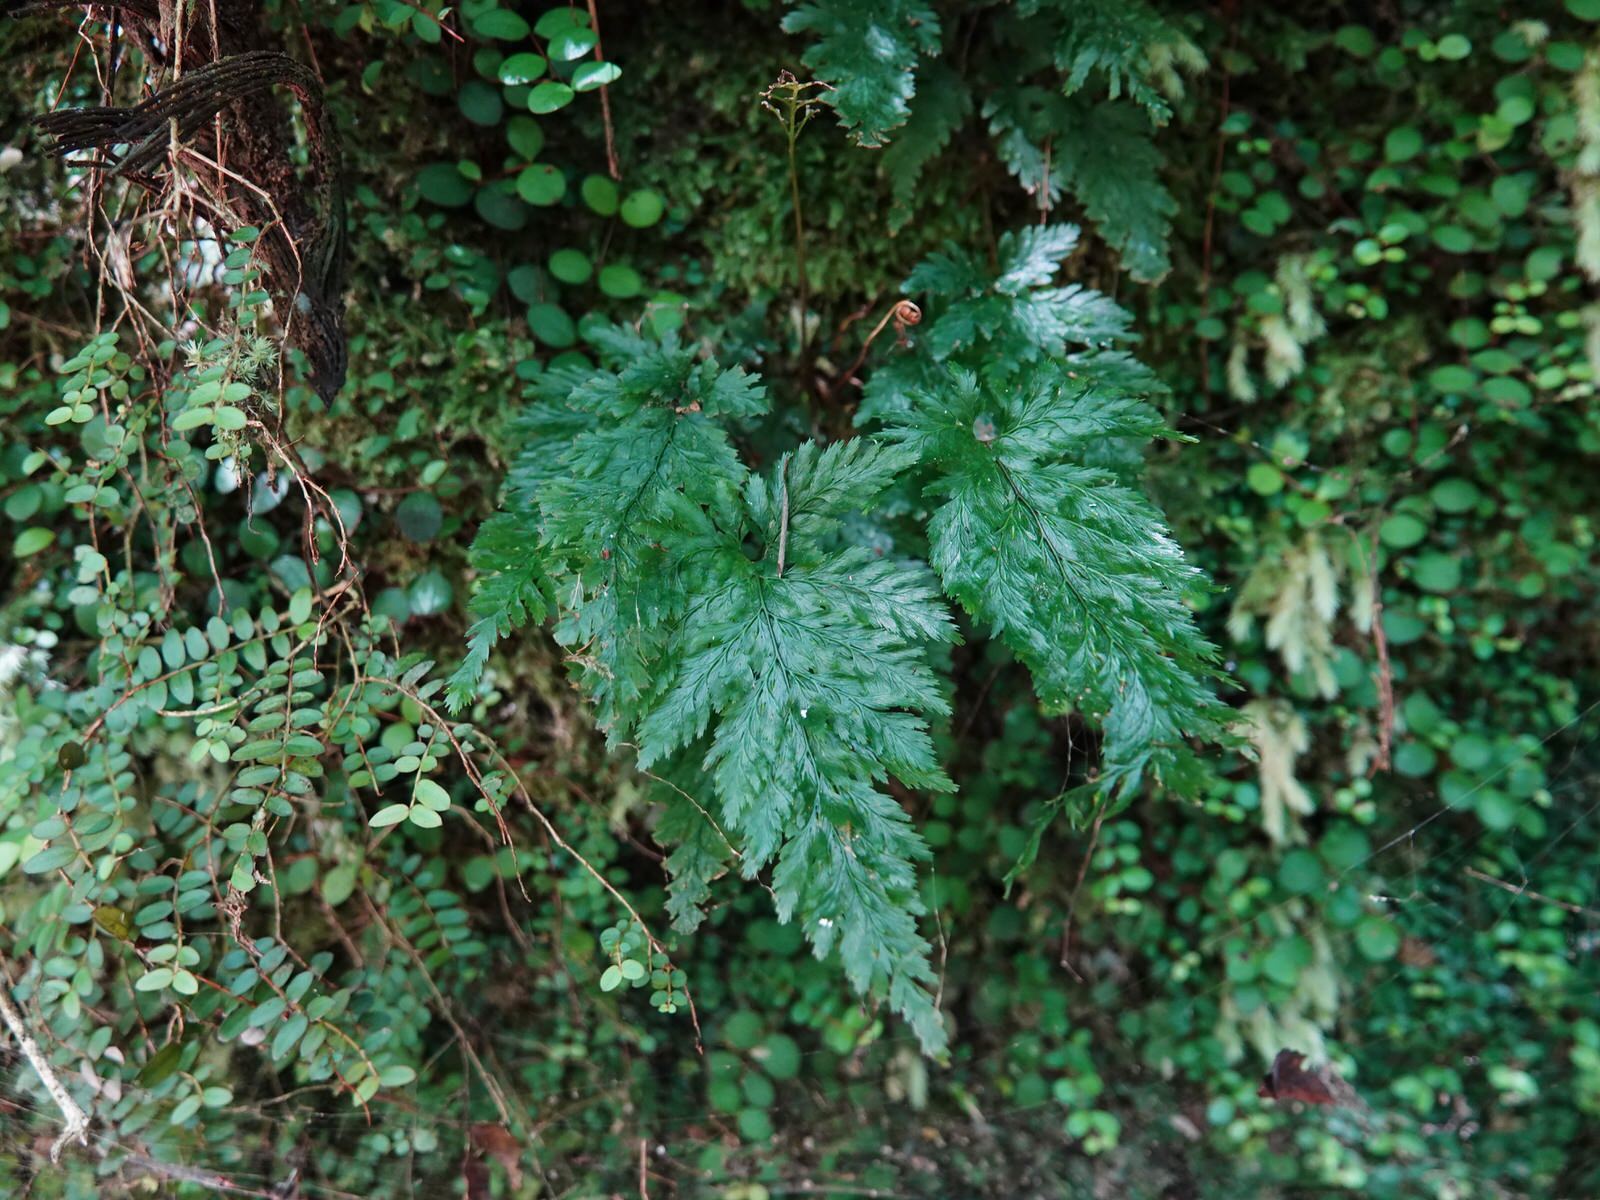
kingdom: Plantae
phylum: Tracheophyta
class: Polypodiopsida
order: Hymenophyllales
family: Hymenophyllaceae
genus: Abrodictyum
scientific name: Abrodictyum elongatum
